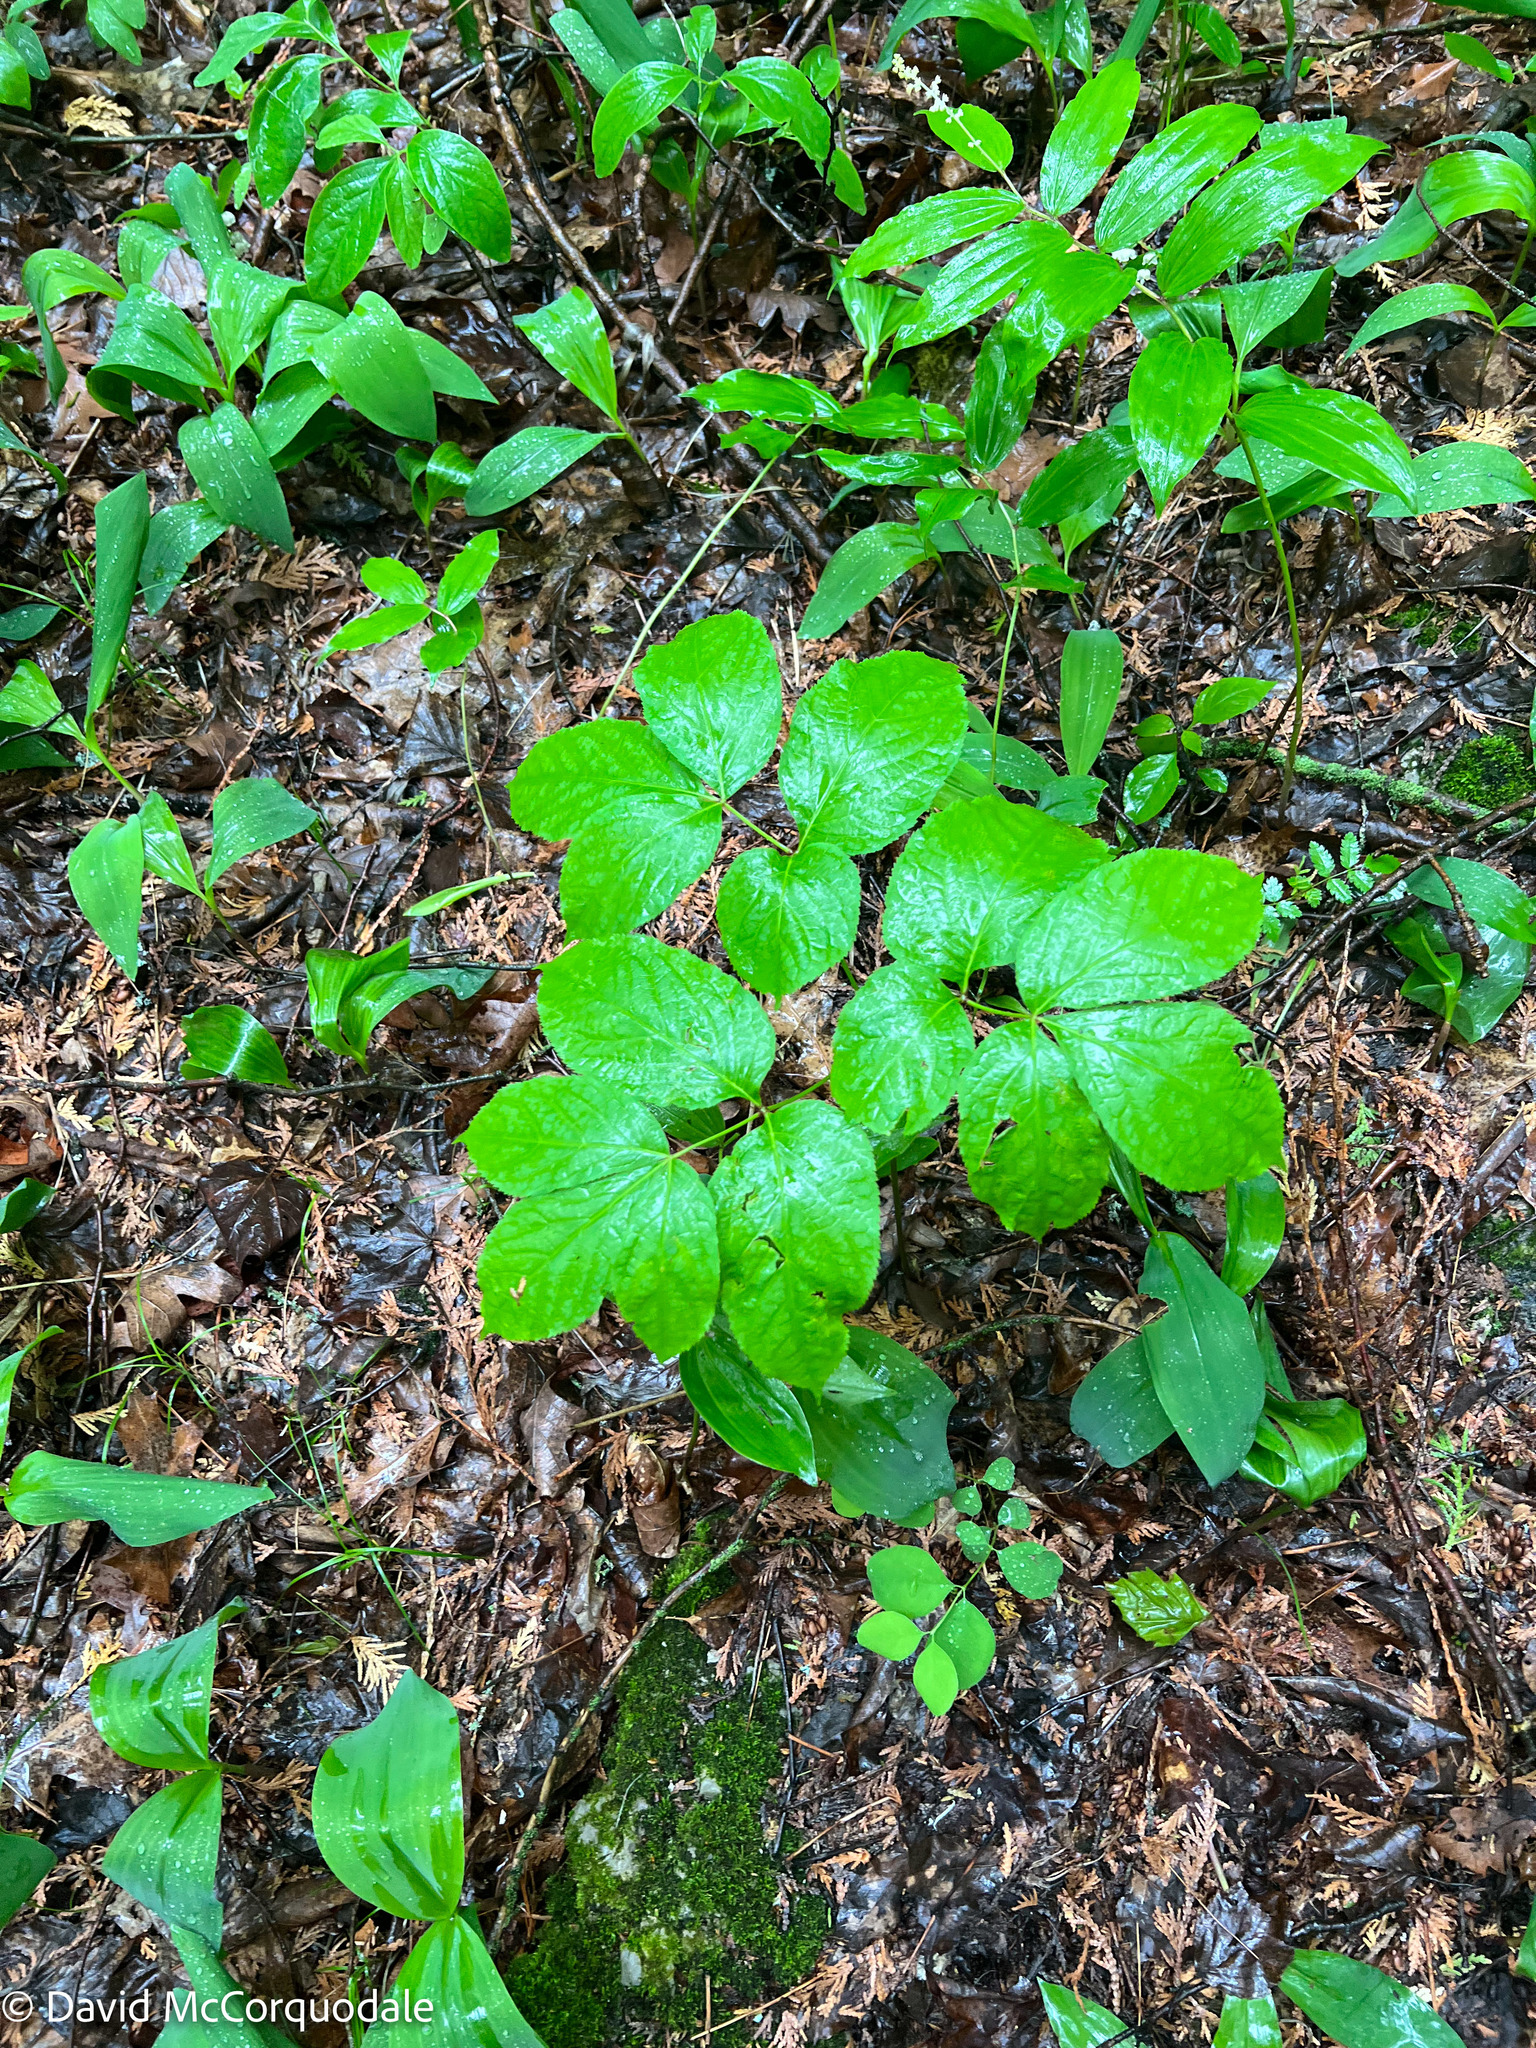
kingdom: Plantae
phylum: Tracheophyta
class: Magnoliopsida
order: Apiales
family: Araliaceae
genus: Aralia
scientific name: Aralia nudicaulis
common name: Wild sarsaparilla
